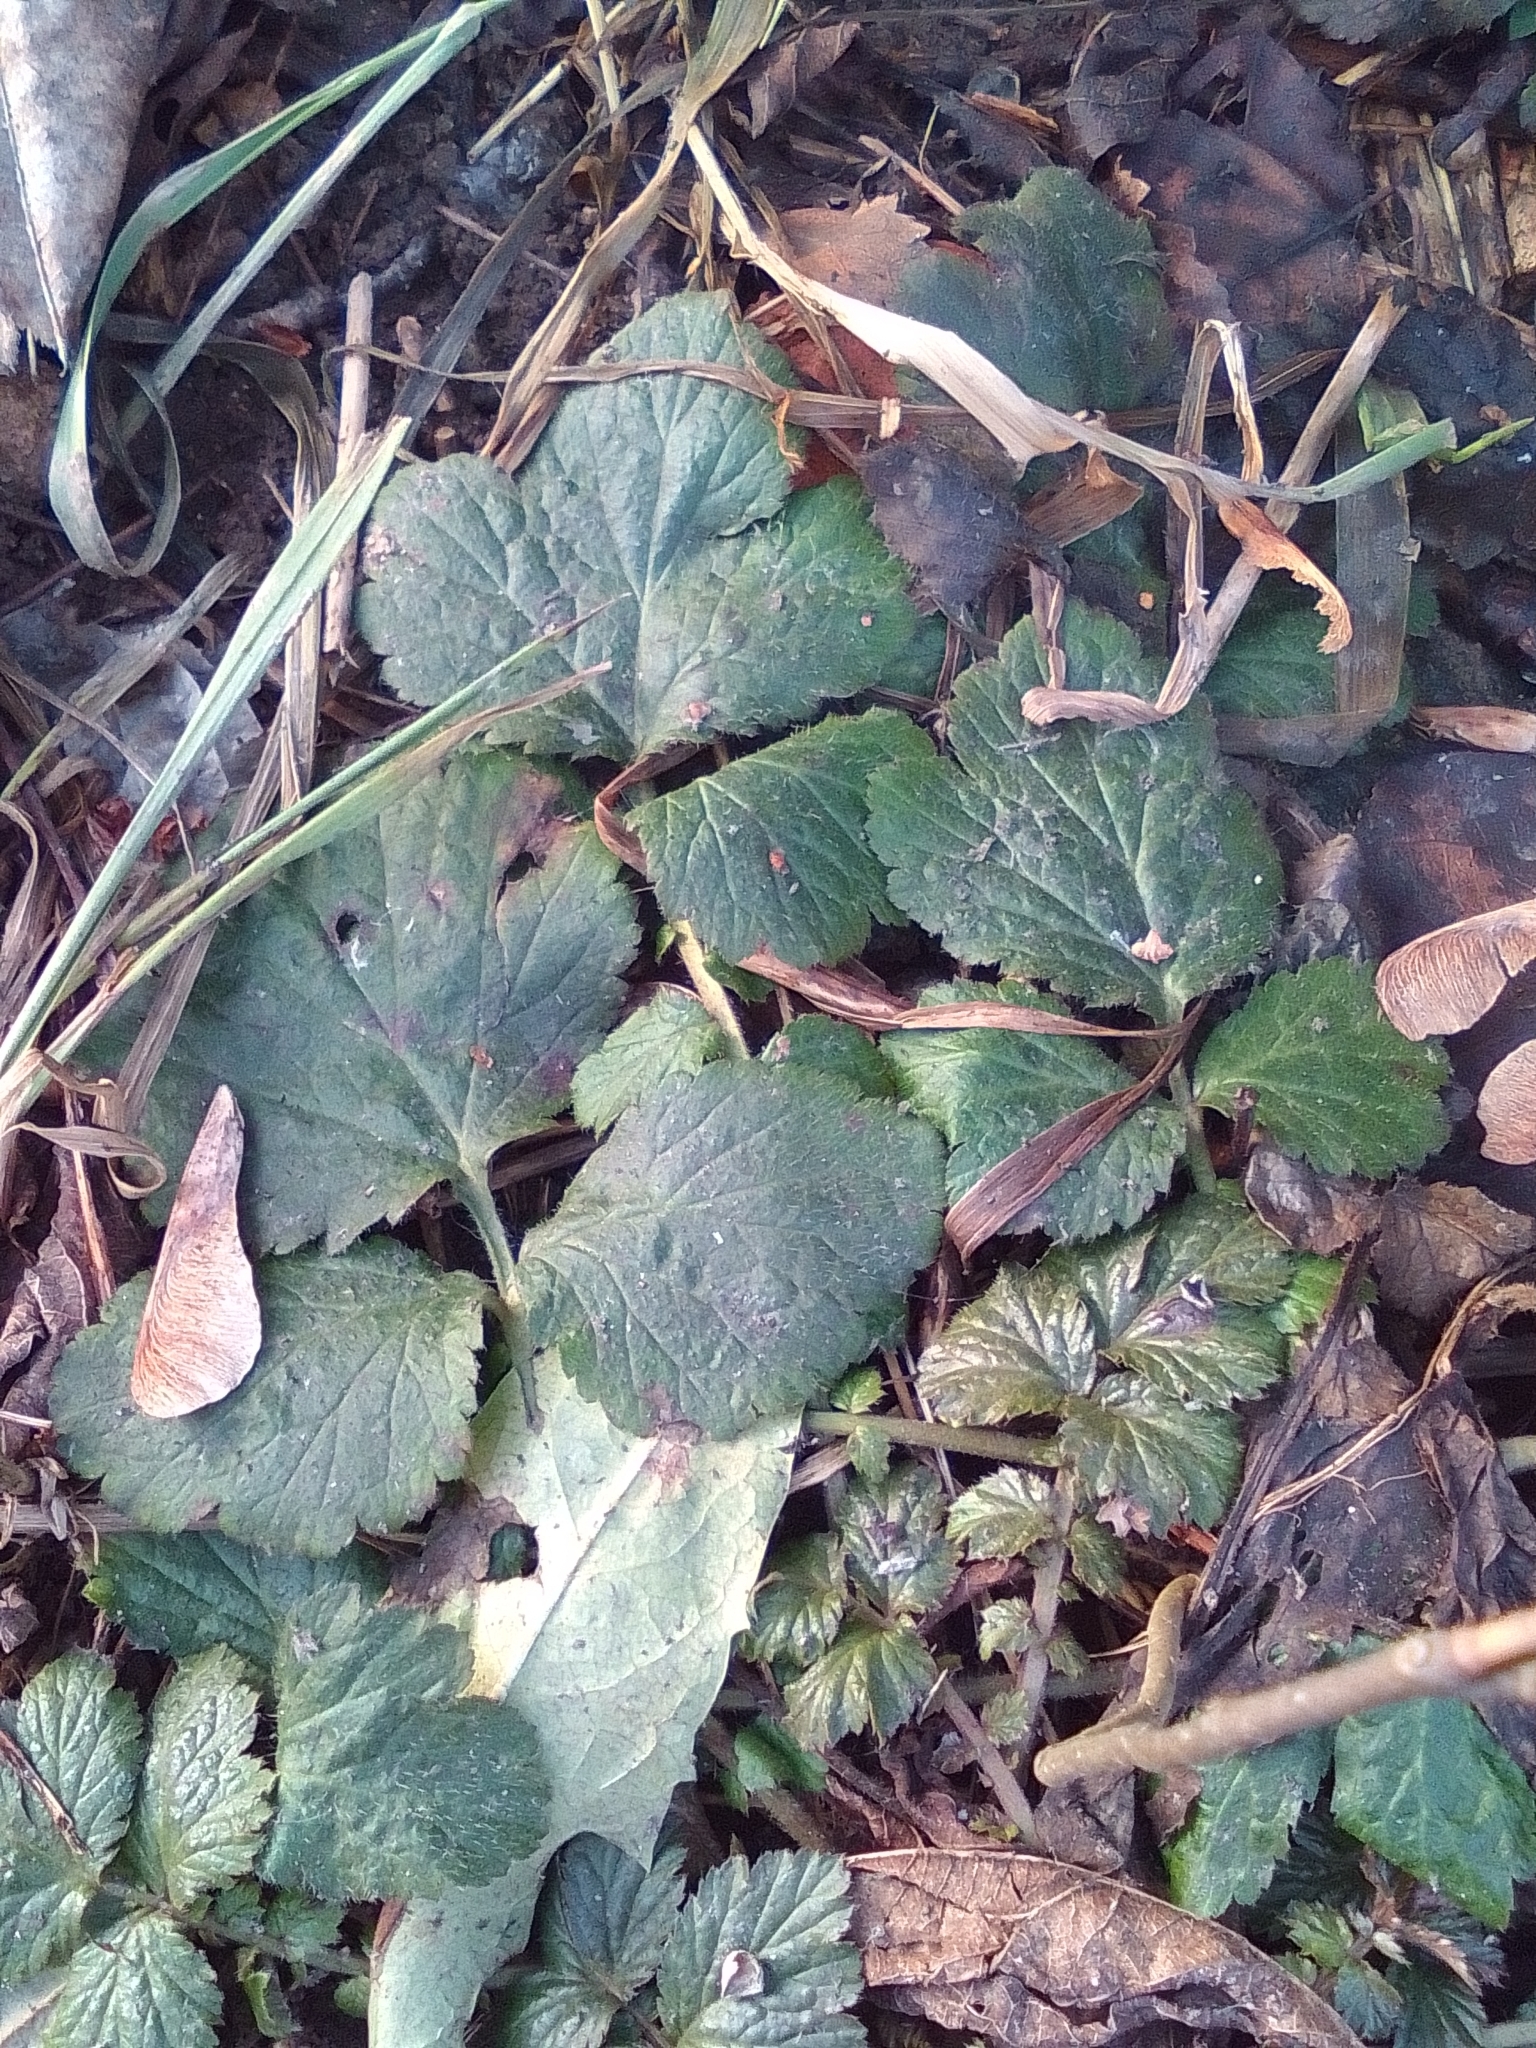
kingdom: Plantae
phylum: Tracheophyta
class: Magnoliopsida
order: Rosales
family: Rosaceae
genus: Geum
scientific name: Geum urbanum
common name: Wood avens
